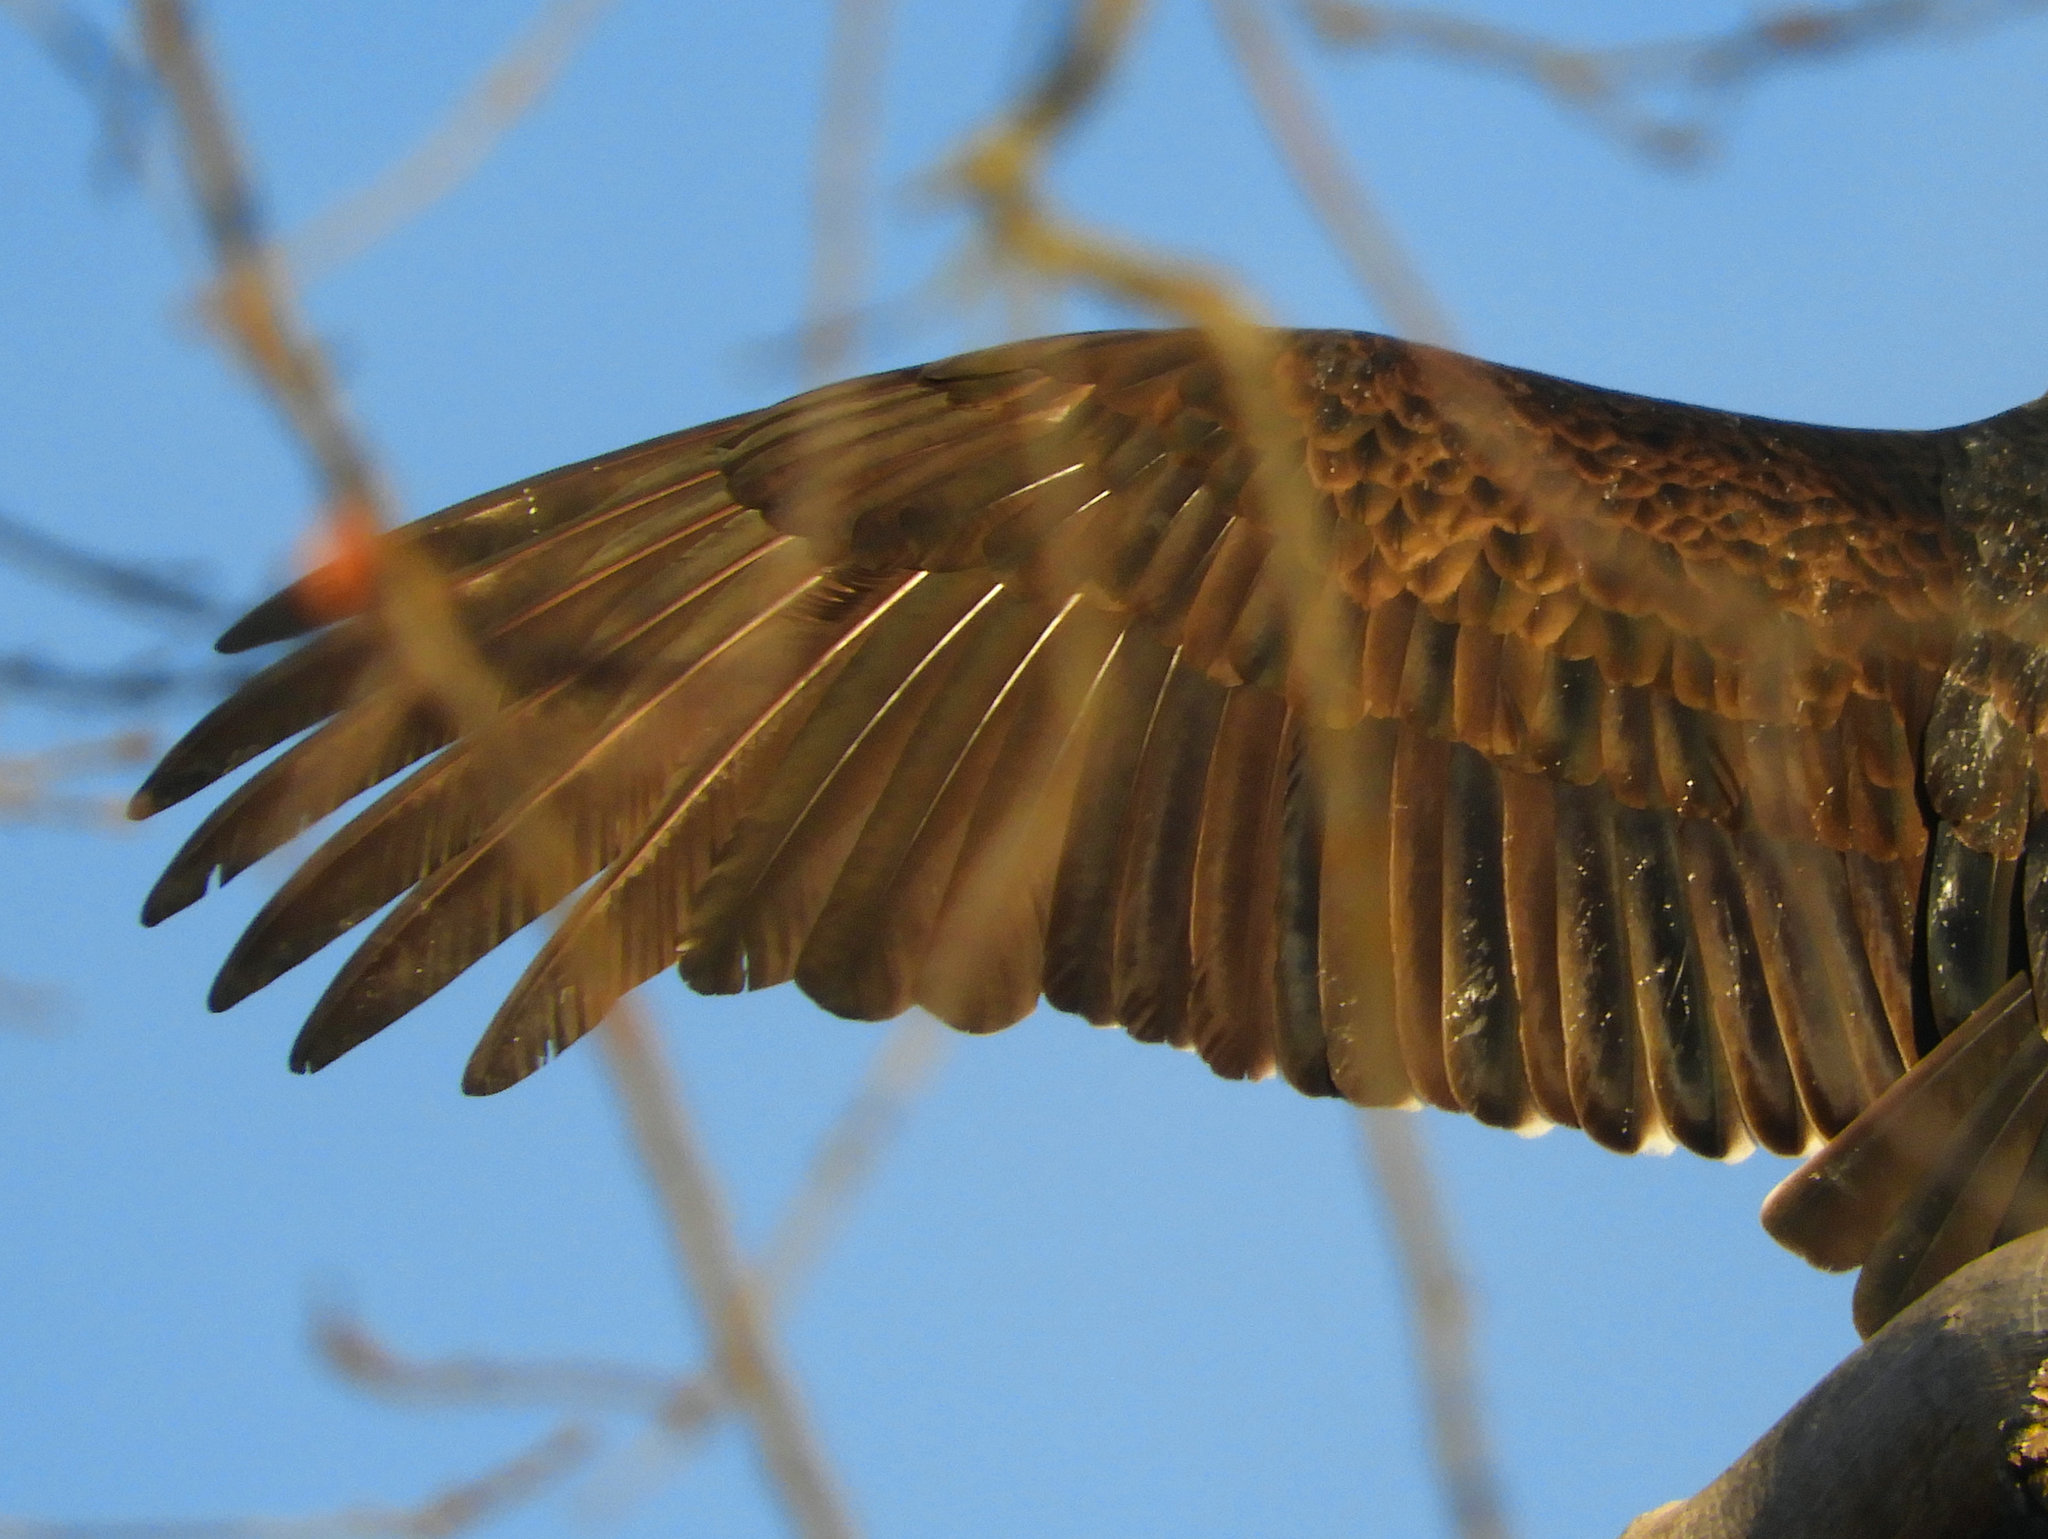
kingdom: Animalia
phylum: Chordata
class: Aves
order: Accipitriformes
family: Cathartidae
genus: Cathartes
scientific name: Cathartes aura
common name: Turkey vulture
